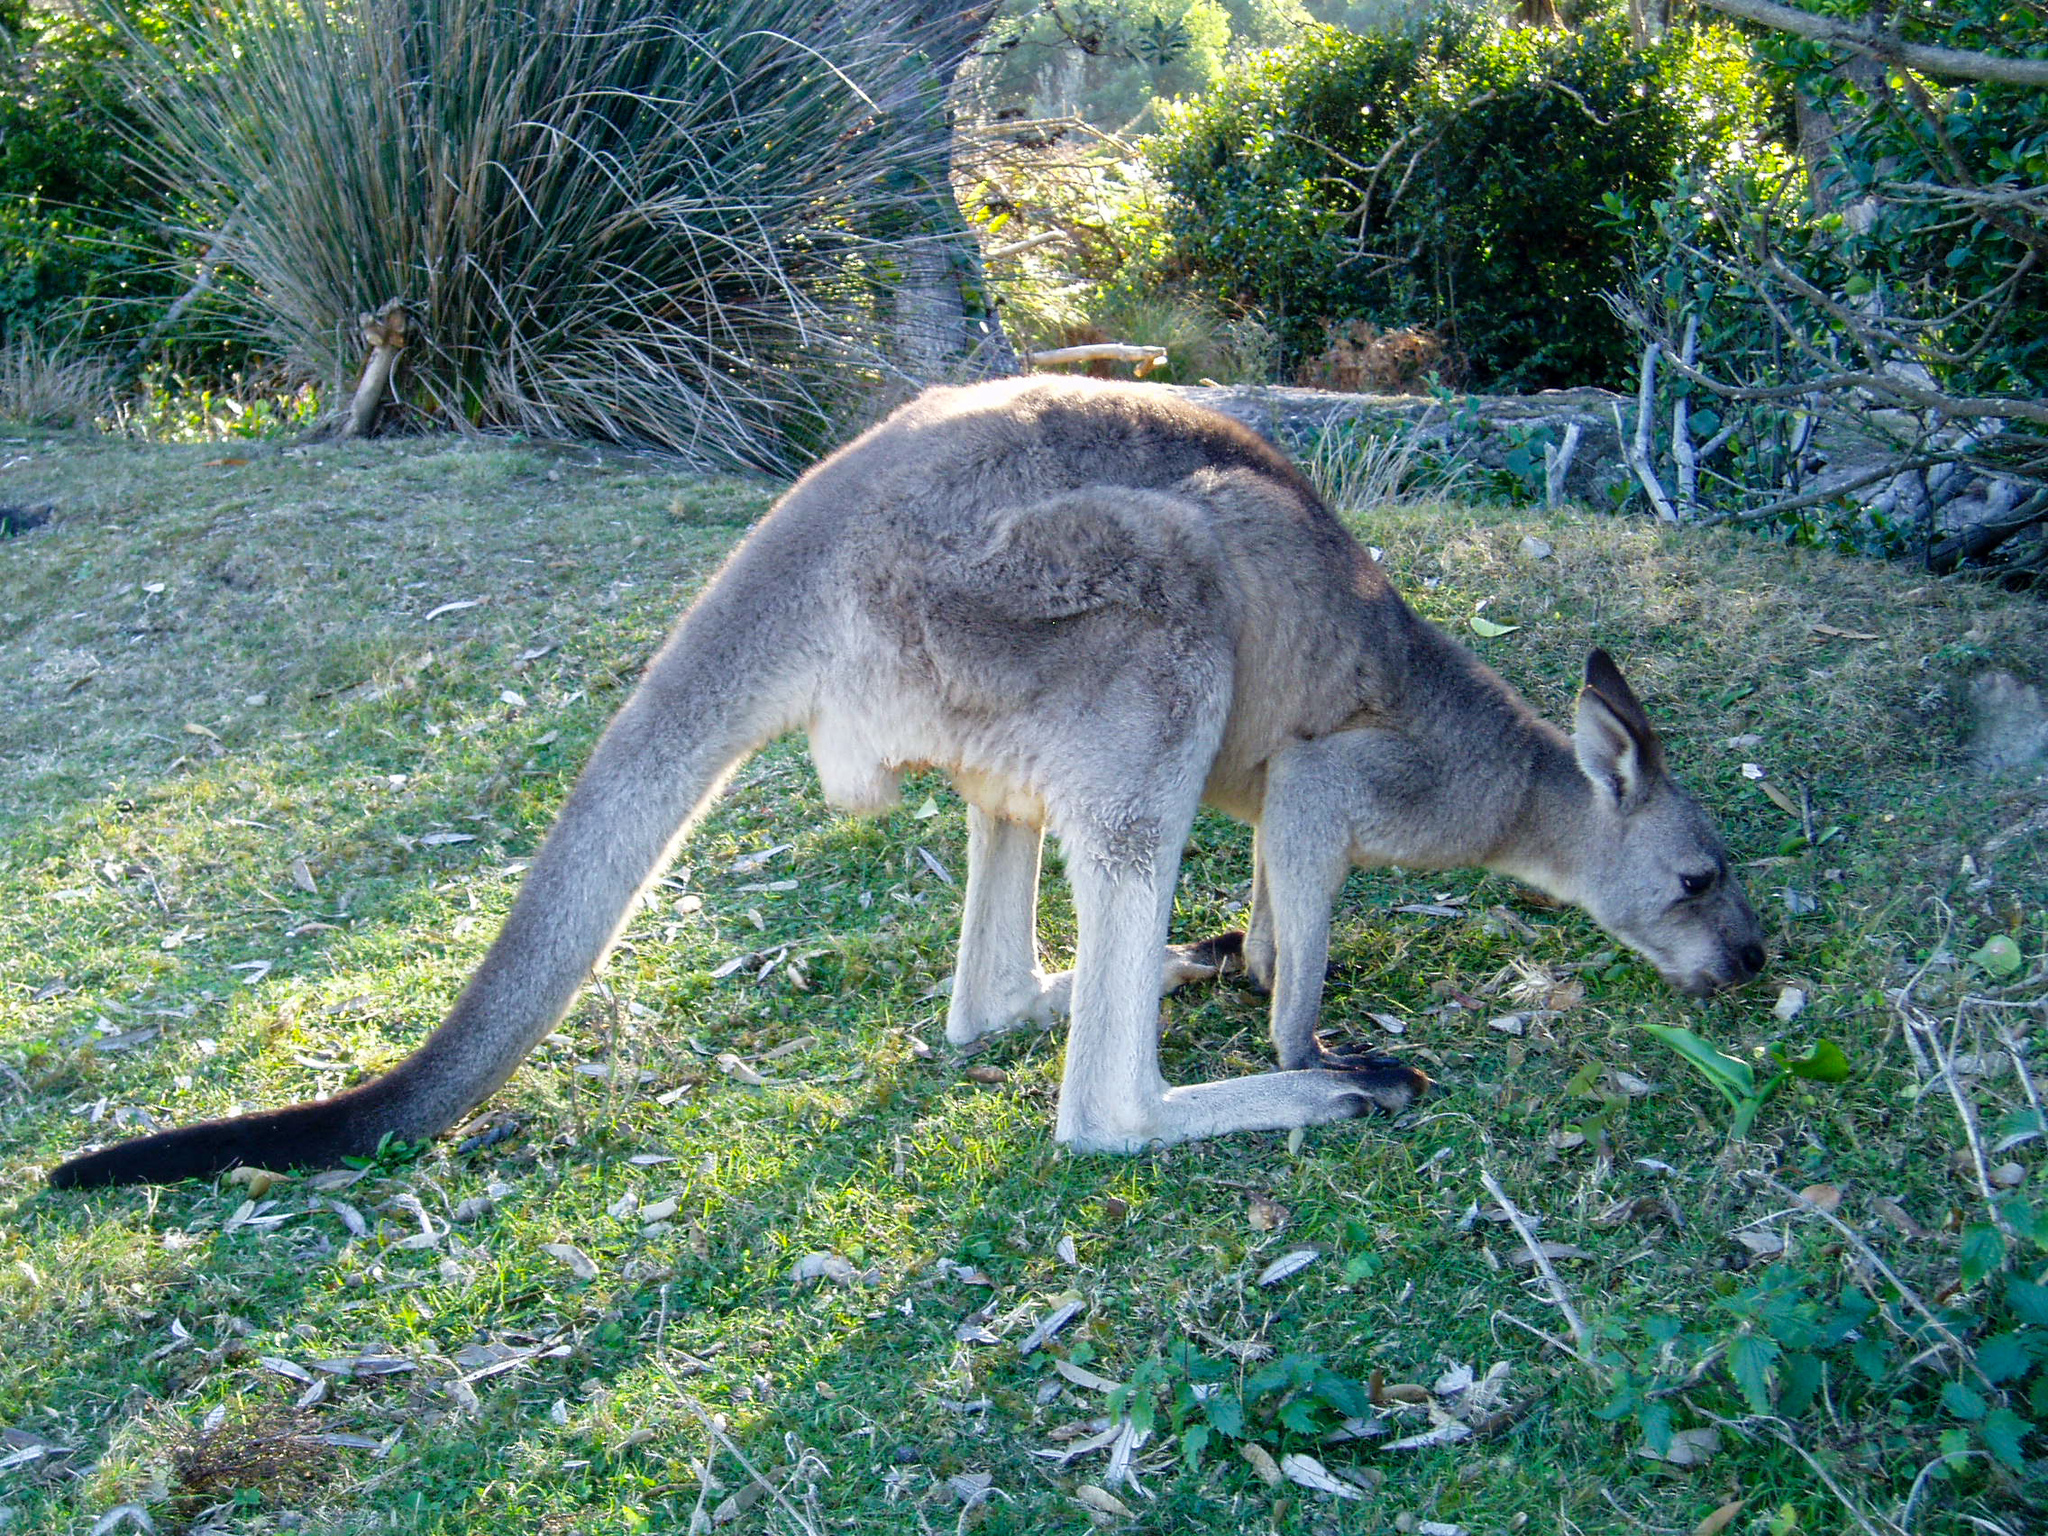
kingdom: Animalia
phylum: Chordata
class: Mammalia
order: Diprotodontia
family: Macropodidae
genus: Macropus
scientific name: Macropus giganteus
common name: Eastern grey kangaroo
